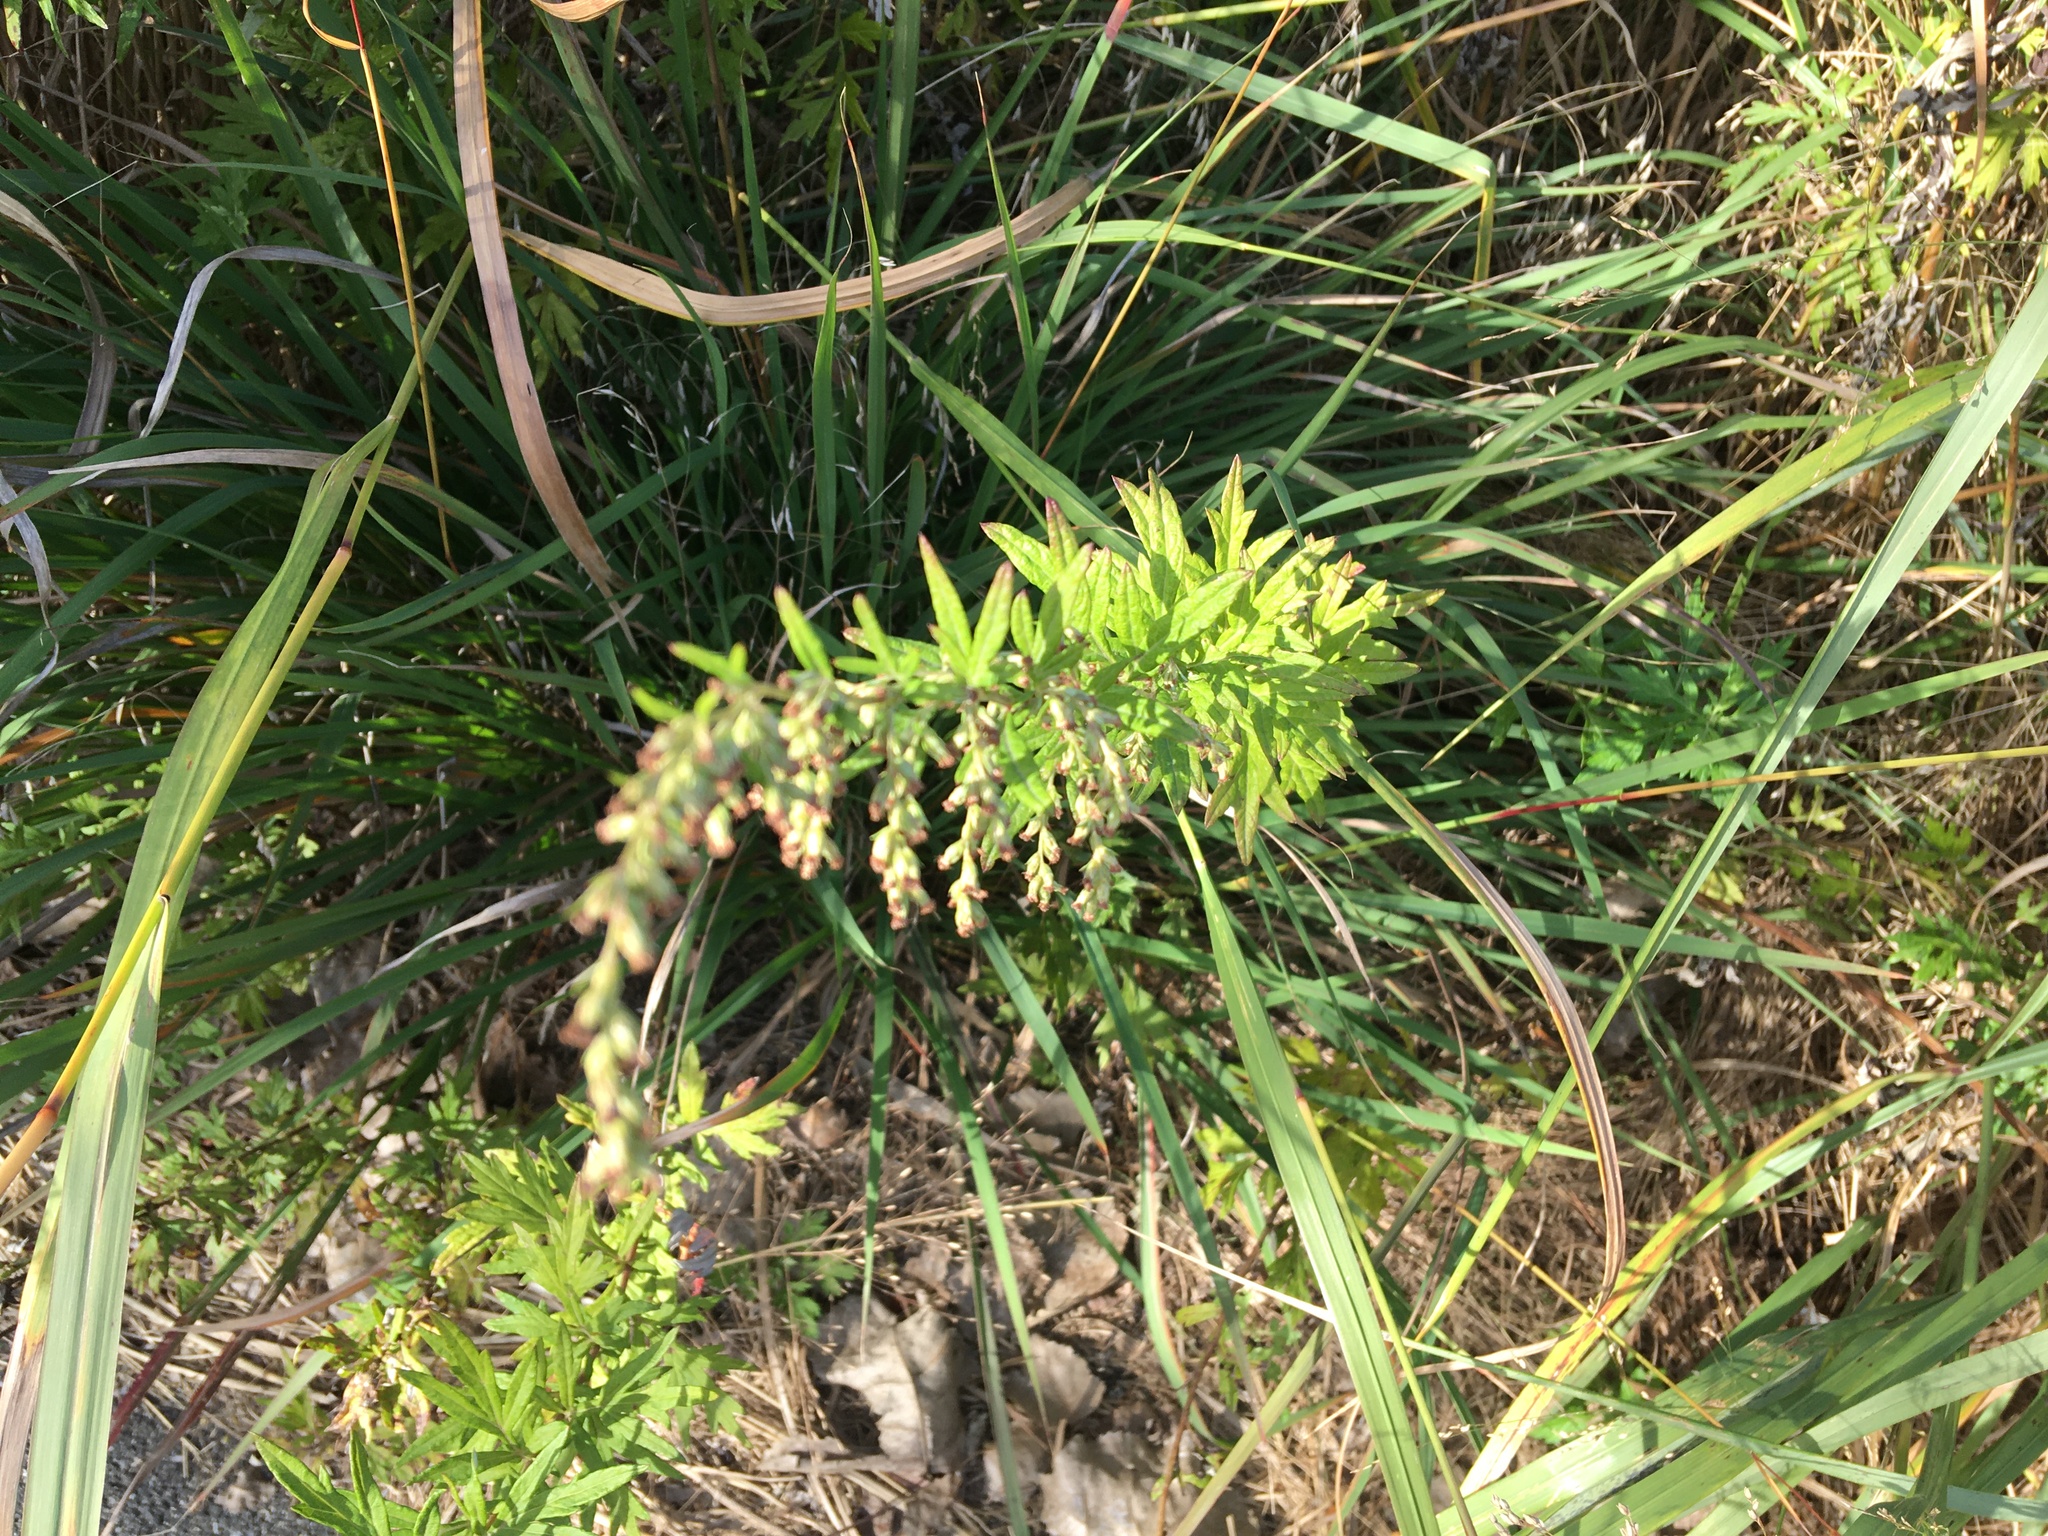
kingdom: Plantae
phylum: Tracheophyta
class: Magnoliopsida
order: Asterales
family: Asteraceae
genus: Artemisia
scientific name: Artemisia vulgaris
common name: Mugwort
